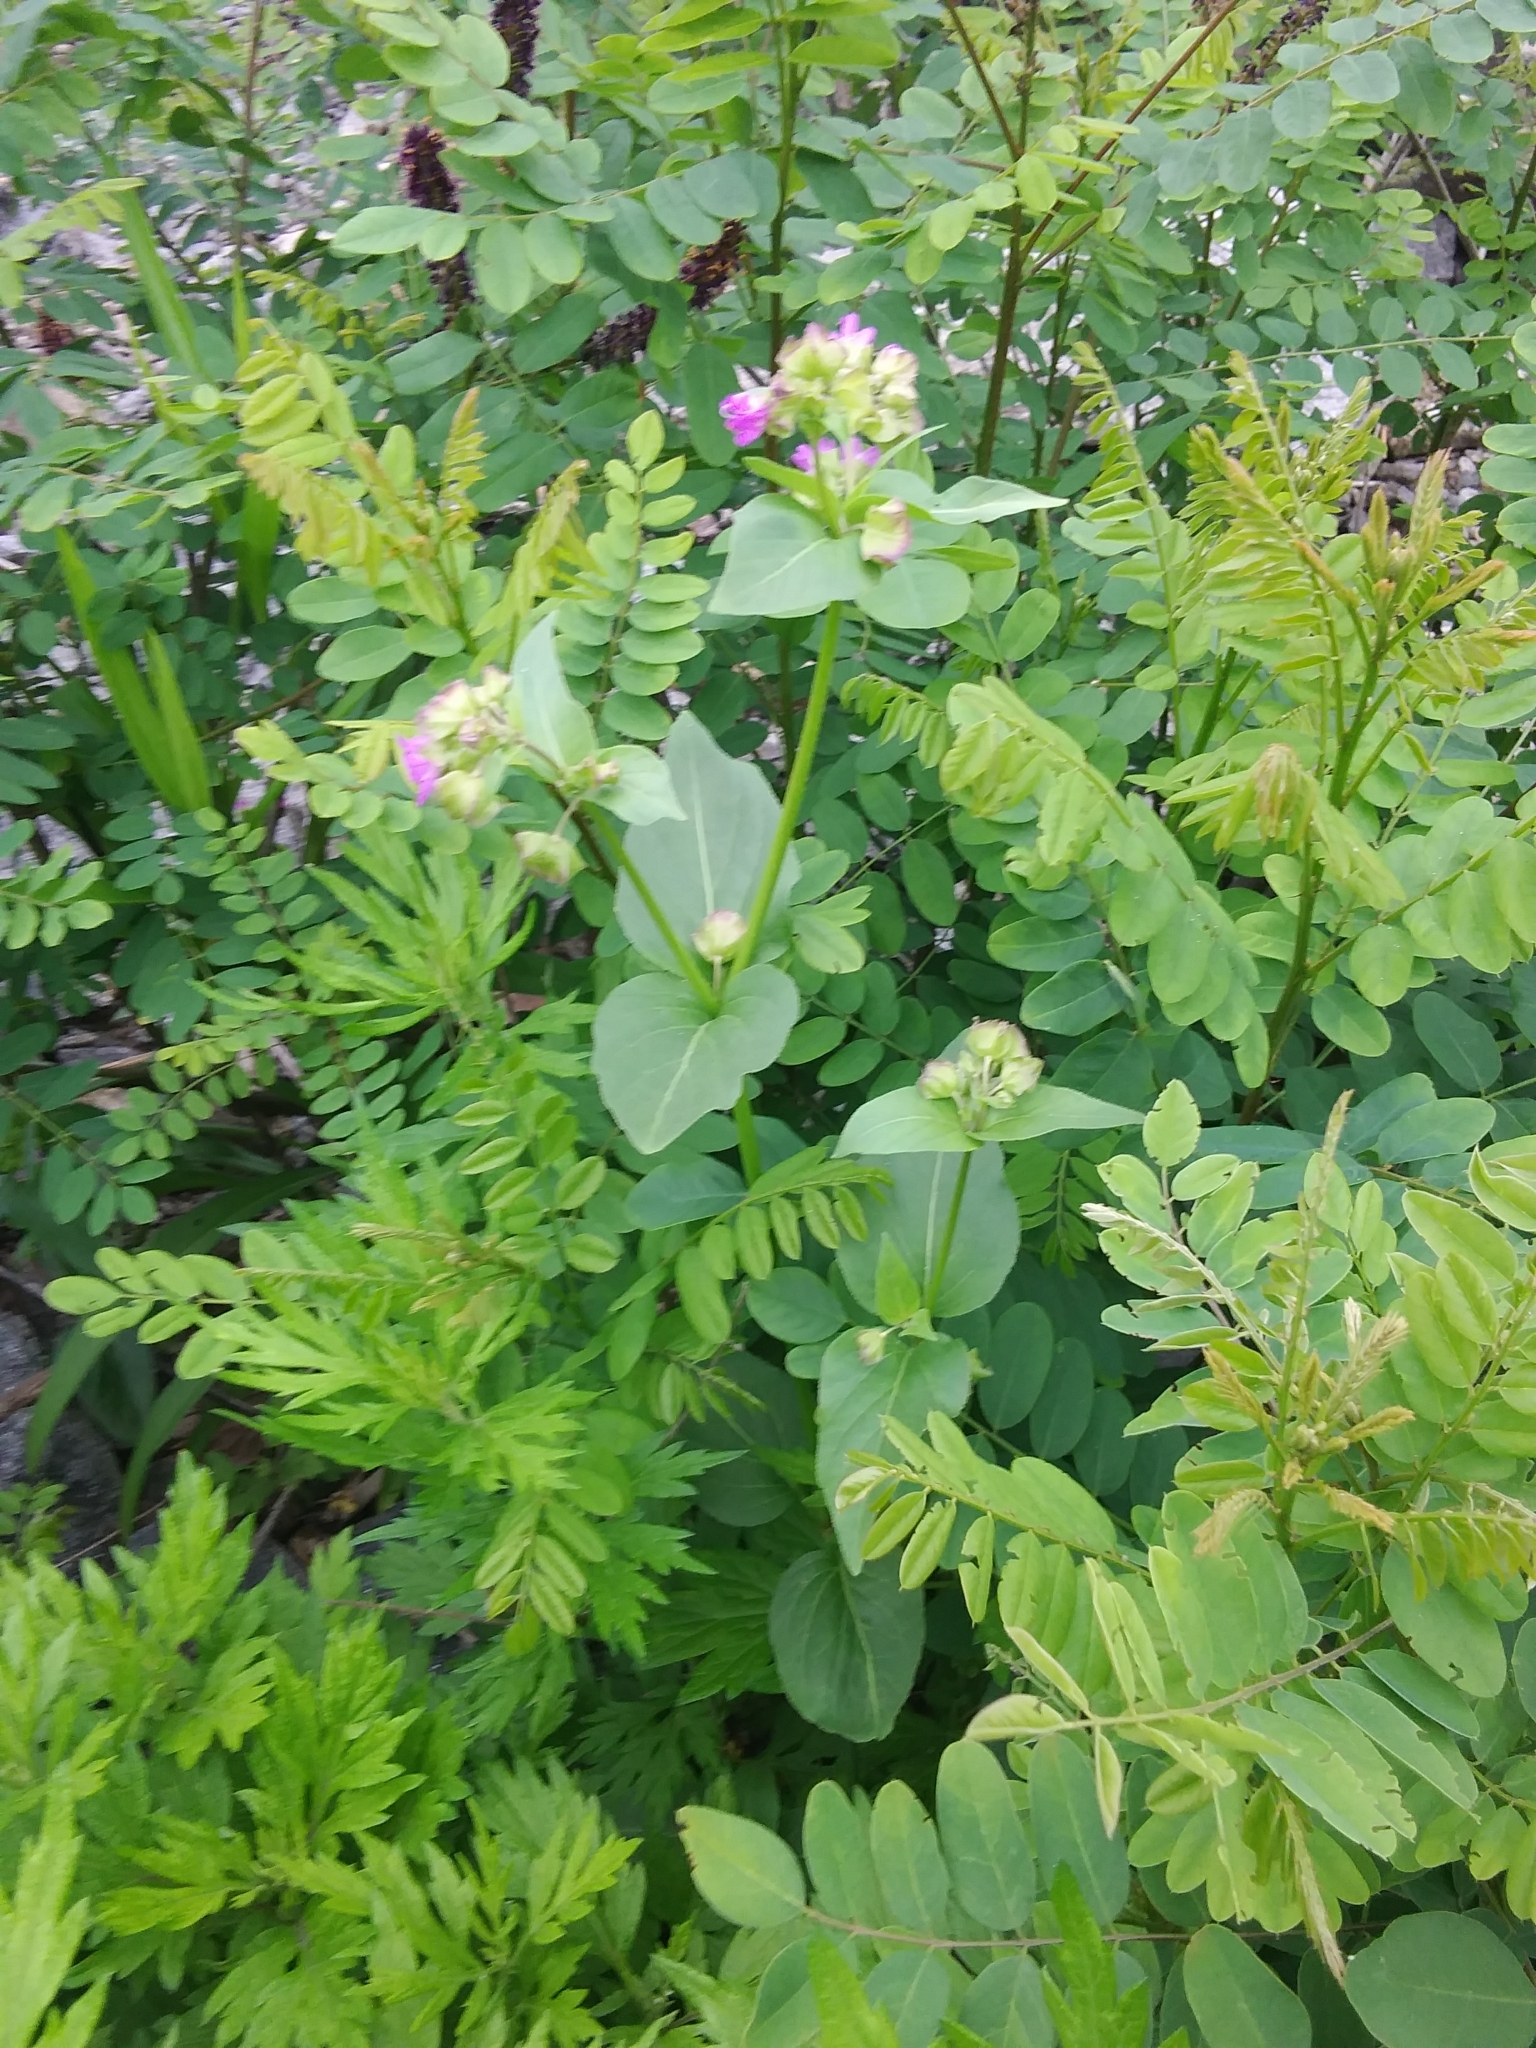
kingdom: Plantae
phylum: Tracheophyta
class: Magnoliopsida
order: Caryophyllales
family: Nyctaginaceae
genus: Mirabilis
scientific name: Mirabilis nyctaginea
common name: Umbrella wort
